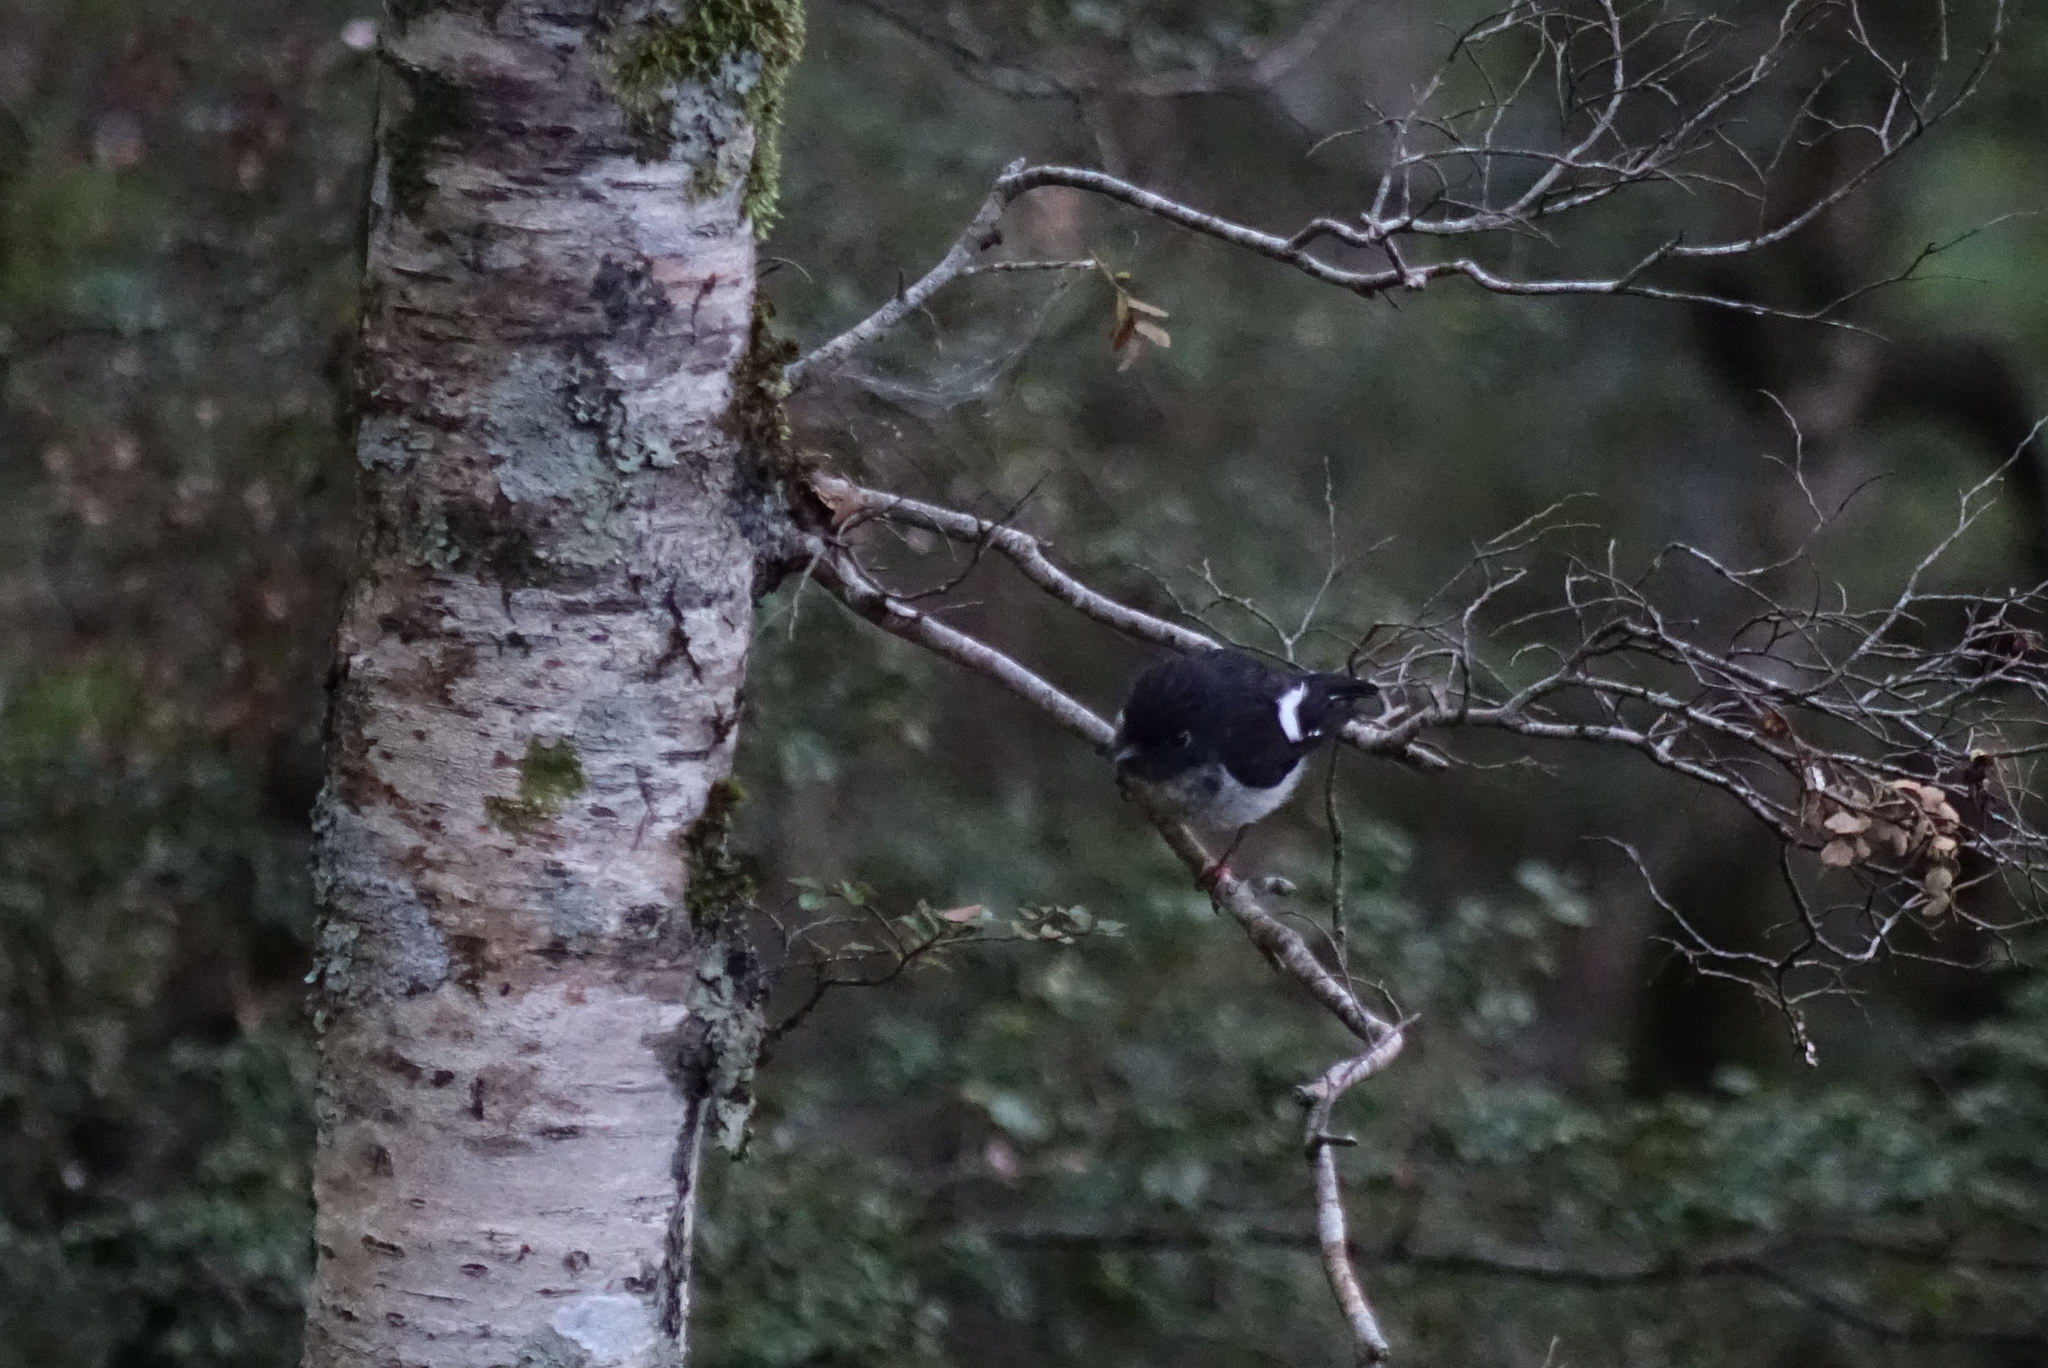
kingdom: Animalia
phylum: Chordata
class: Aves
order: Passeriformes
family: Petroicidae
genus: Petroica
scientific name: Petroica macrocephala
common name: Tomtit
